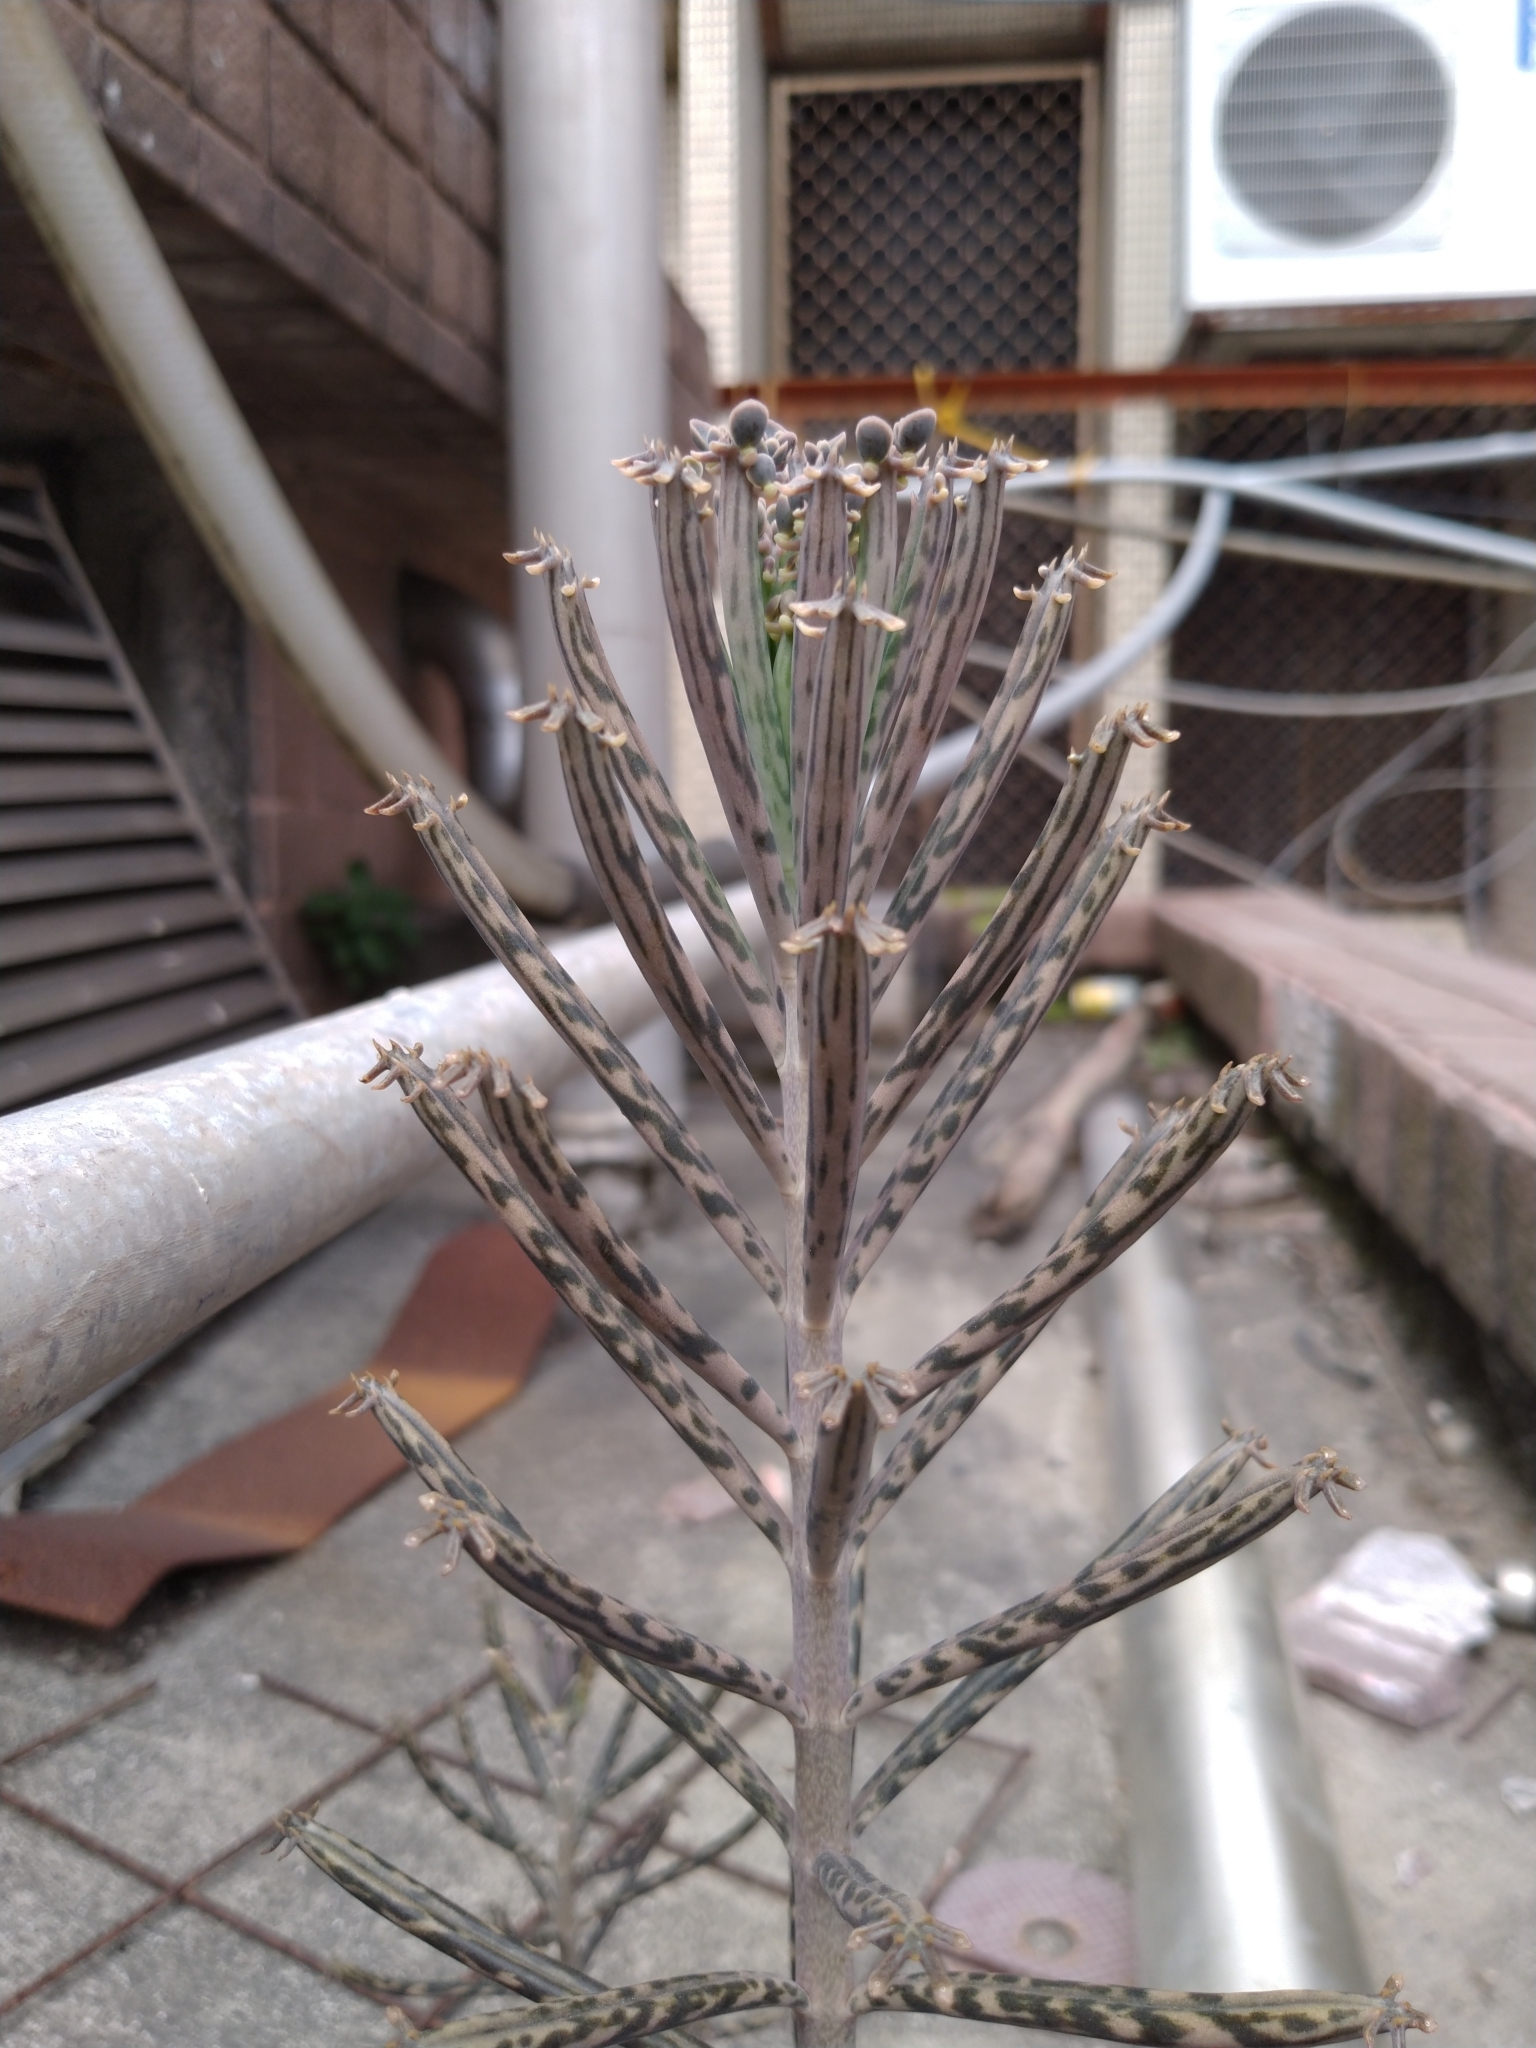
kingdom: Plantae
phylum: Tracheophyta
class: Magnoliopsida
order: Saxifragales
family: Crassulaceae
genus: Kalanchoe
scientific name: Kalanchoe delagoensis
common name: Chandelier plant
